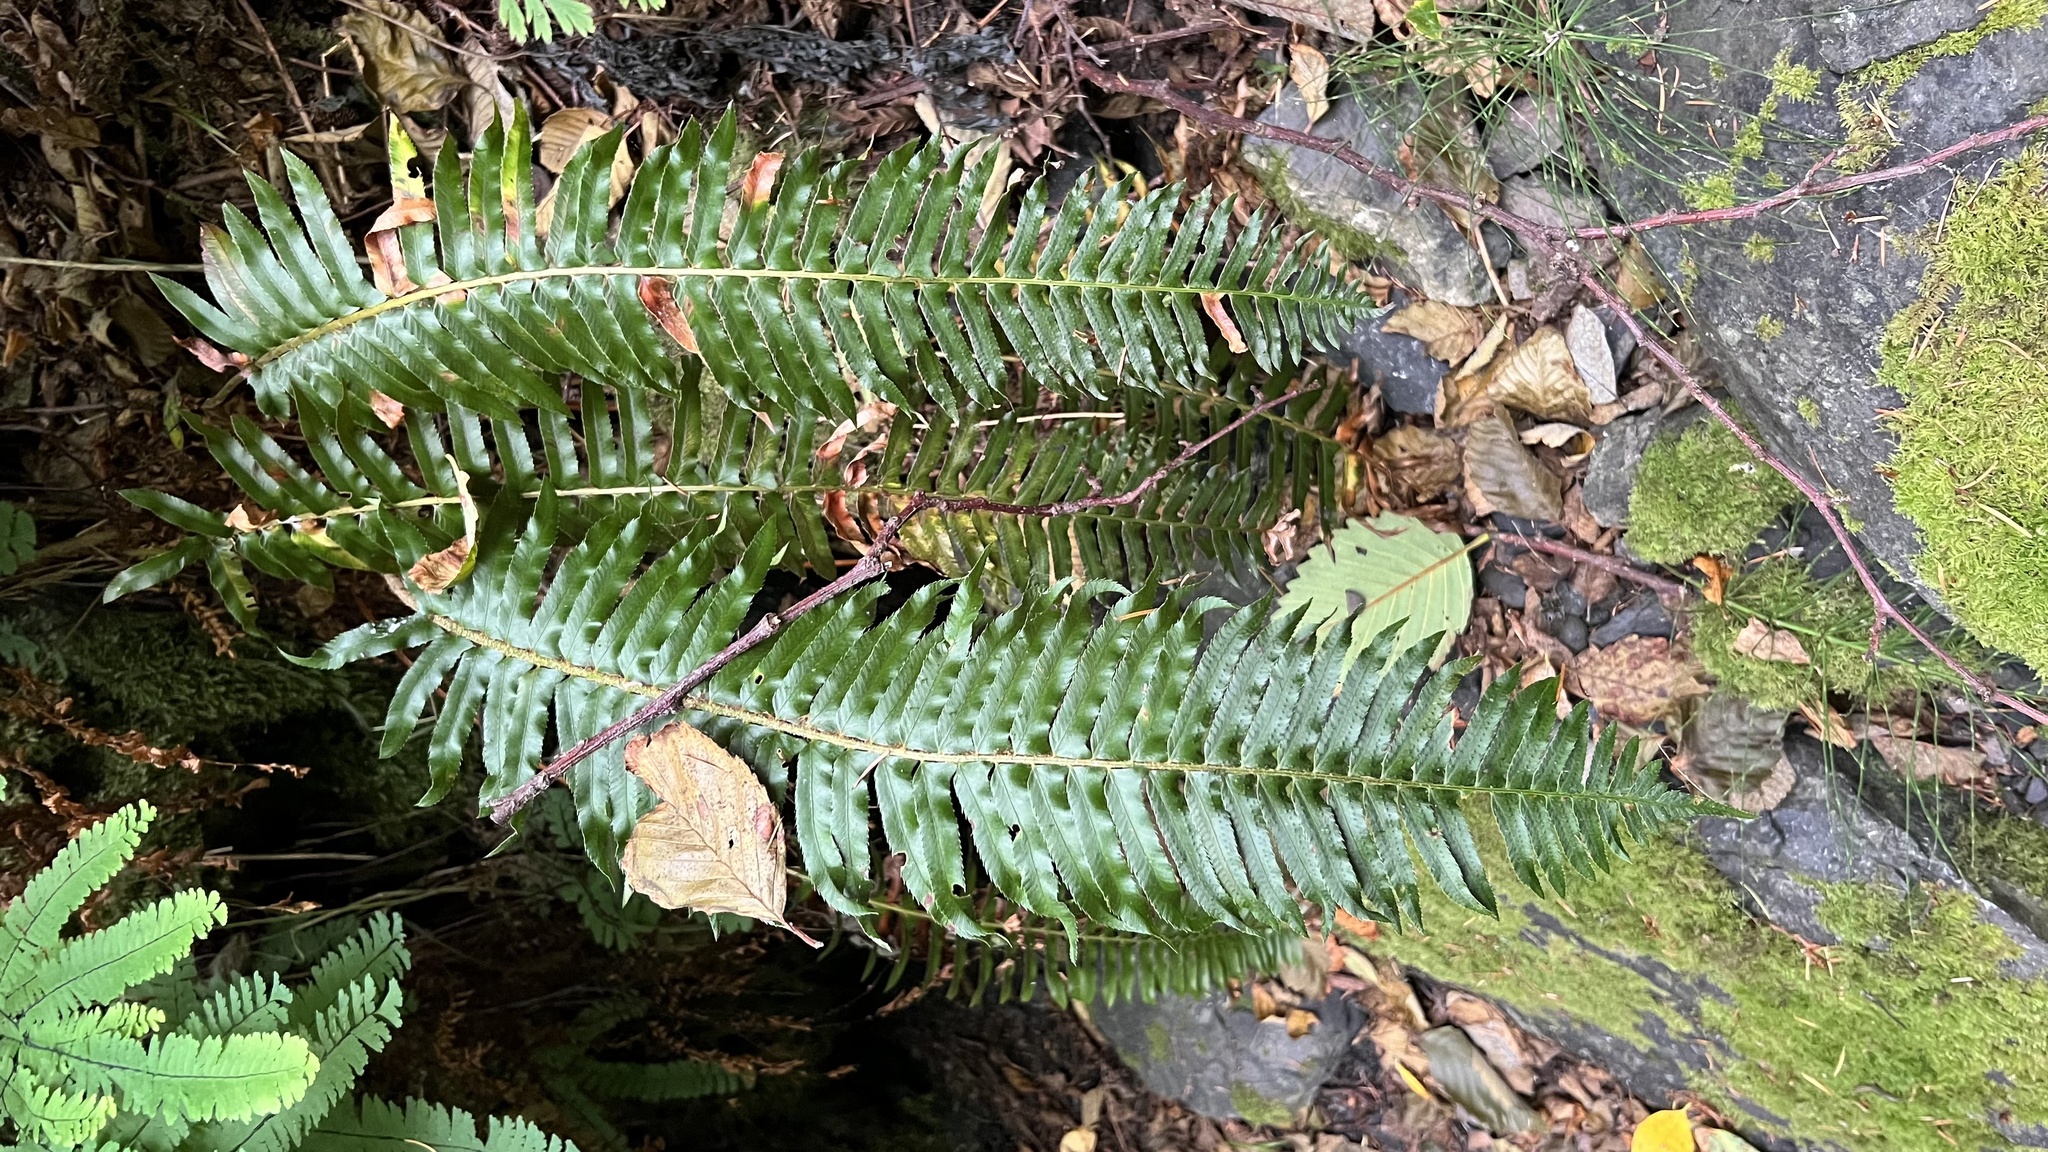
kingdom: Plantae
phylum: Tracheophyta
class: Polypodiopsida
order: Polypodiales
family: Dryopteridaceae
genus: Polystichum
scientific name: Polystichum munitum
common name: Western sword-fern
